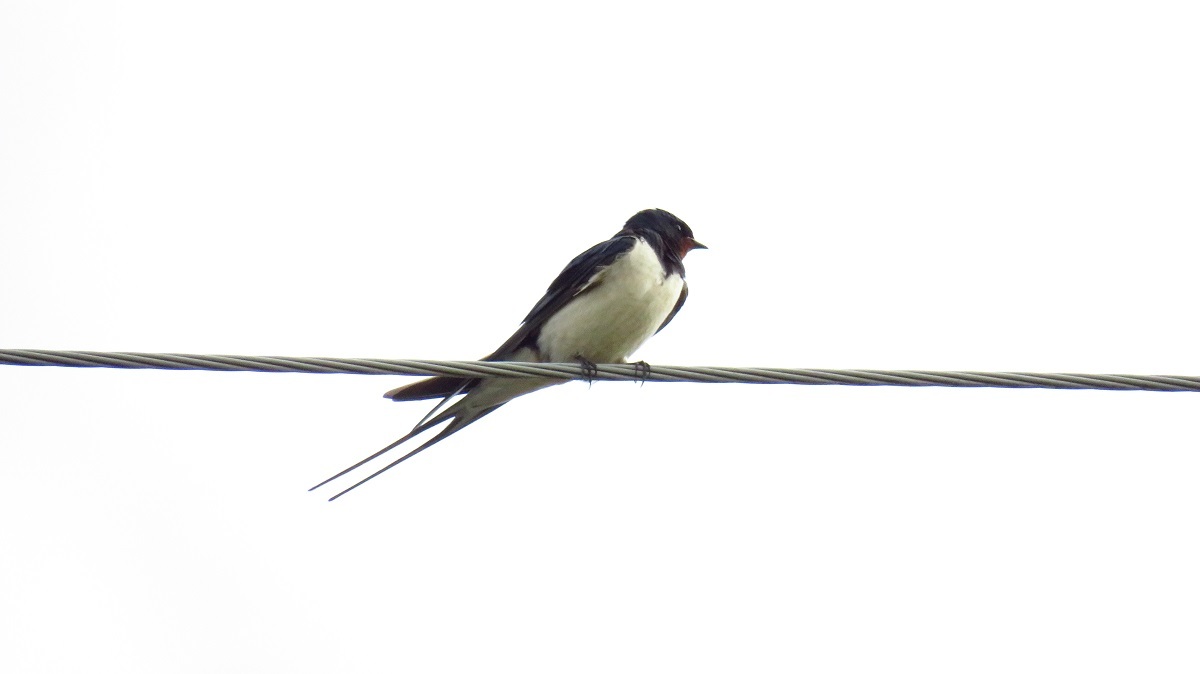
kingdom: Animalia
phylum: Chordata
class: Aves
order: Passeriformes
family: Hirundinidae
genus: Hirundo
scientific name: Hirundo rustica
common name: Barn swallow
